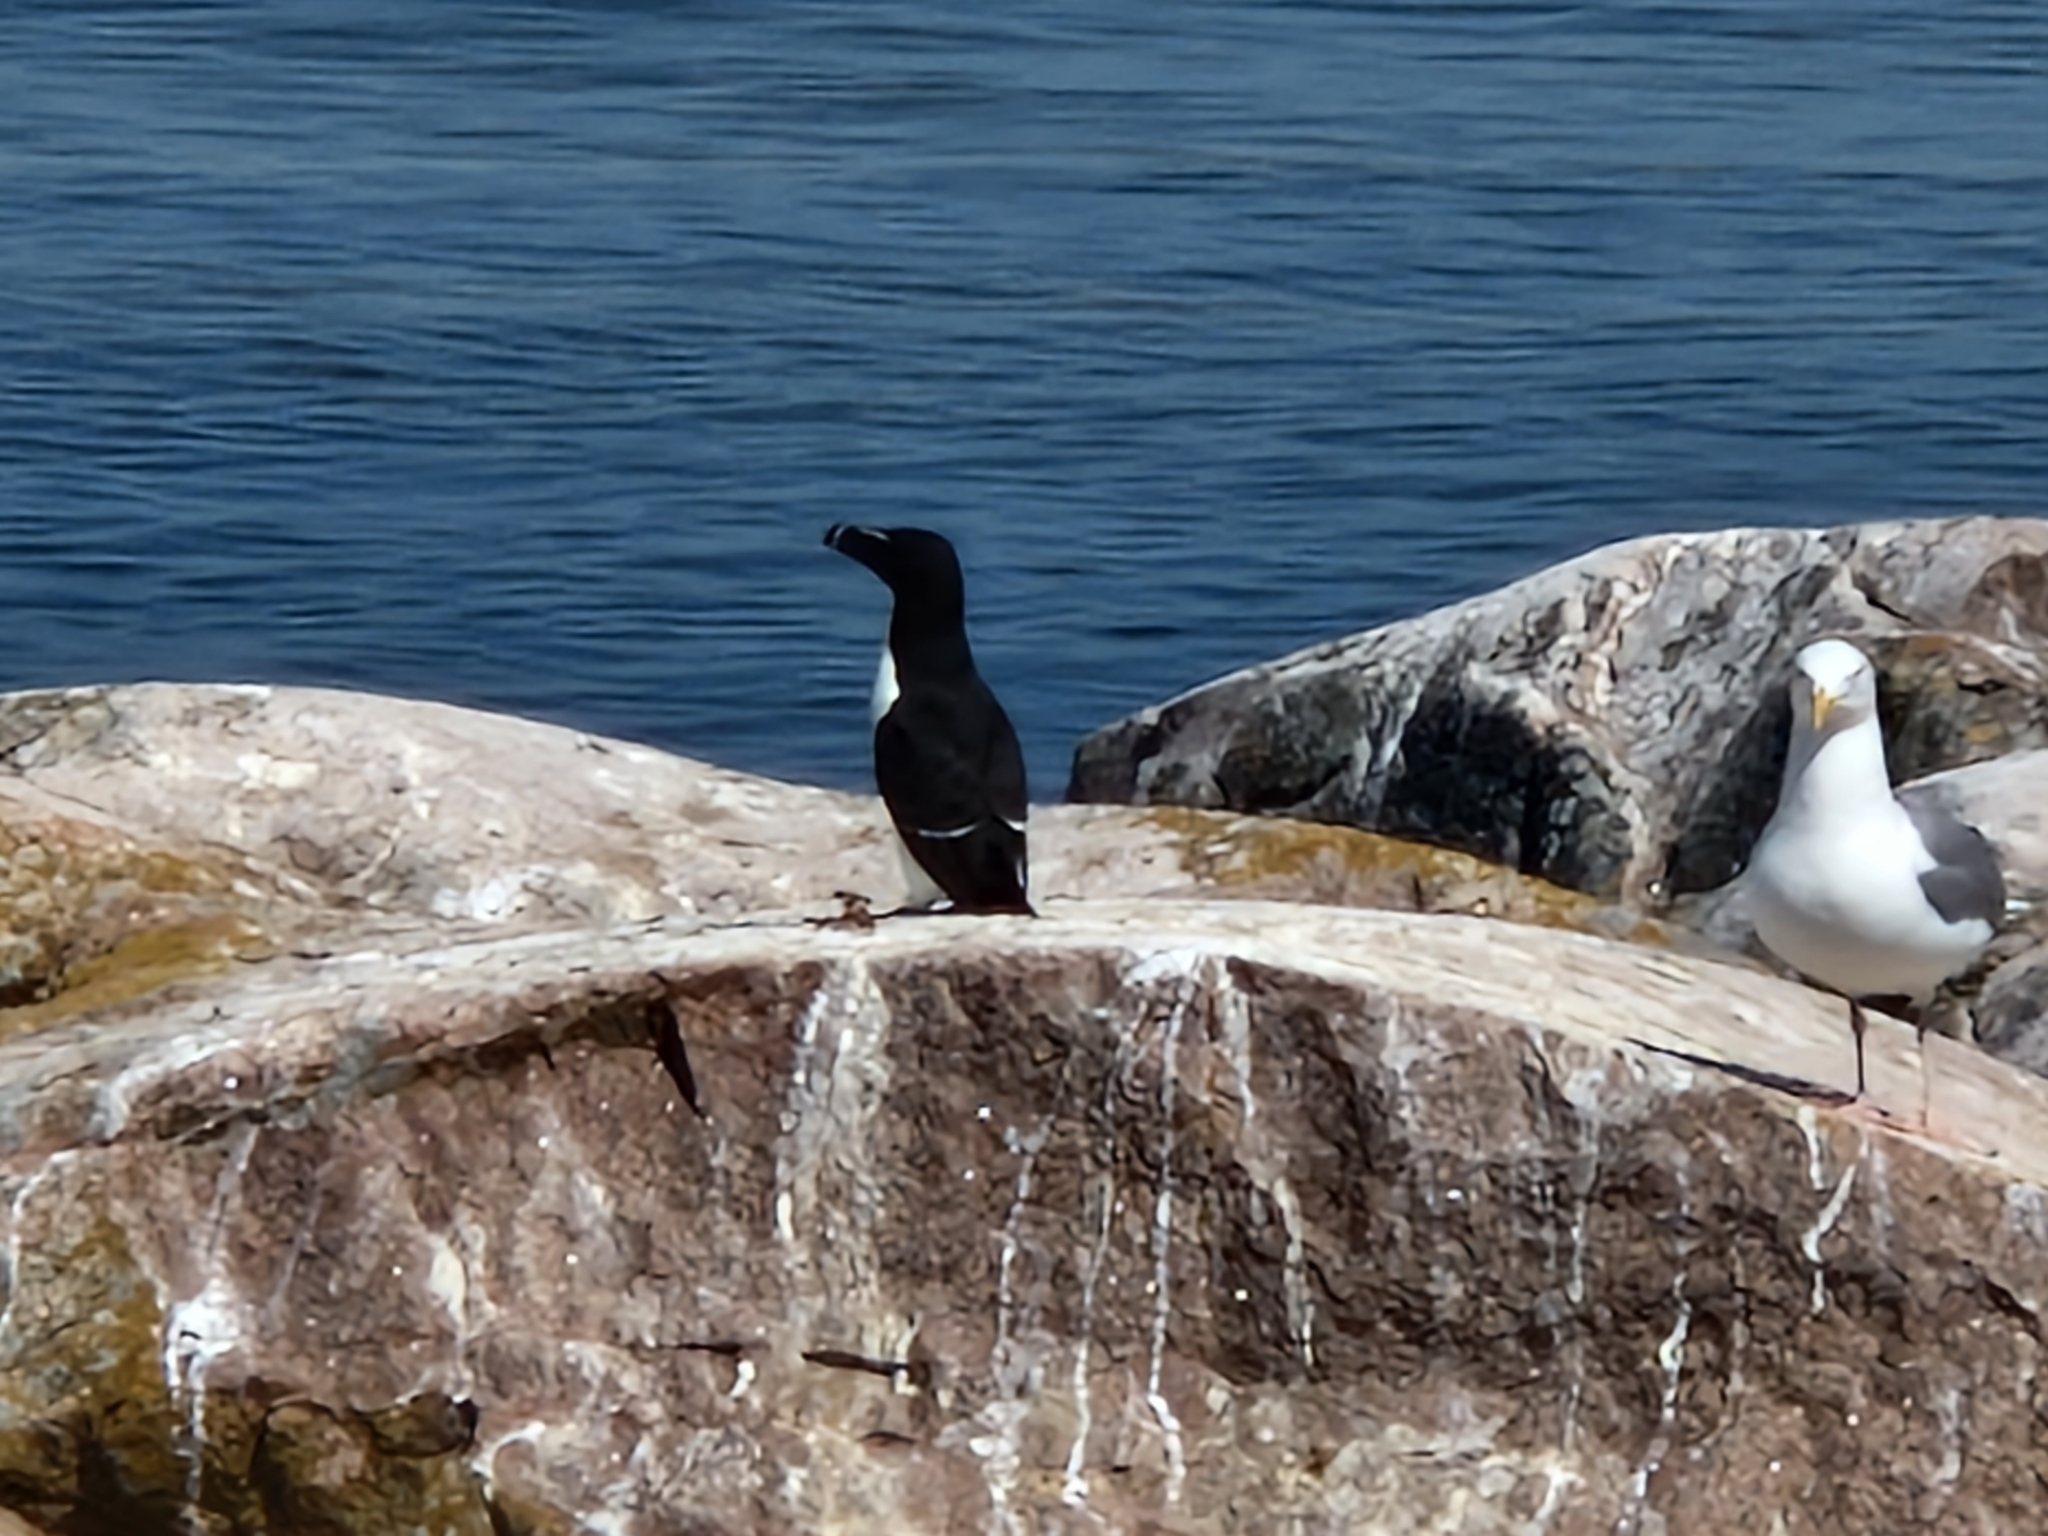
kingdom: Animalia
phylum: Chordata
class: Aves
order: Charadriiformes
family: Alcidae
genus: Alca
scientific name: Alca torda
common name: Razorbill
